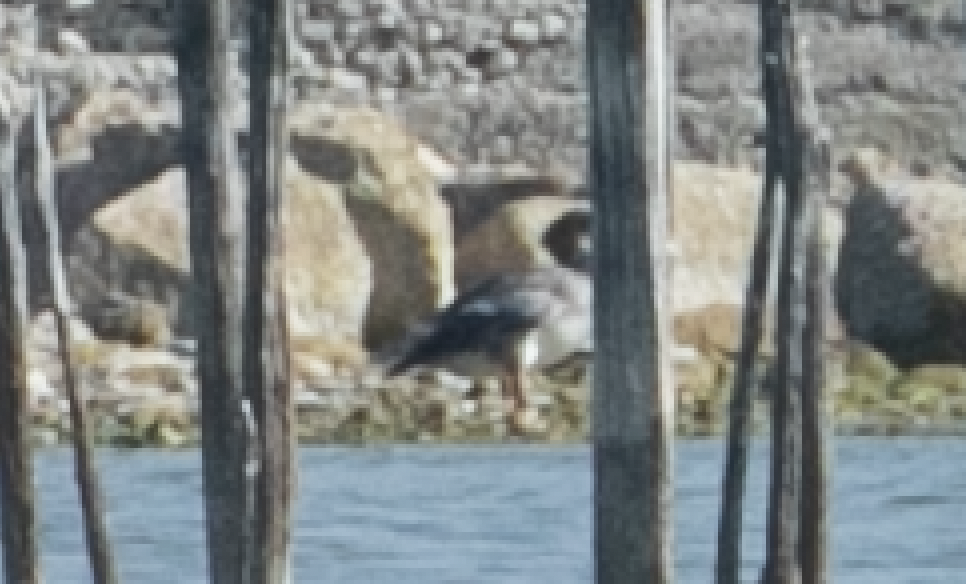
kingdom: Animalia
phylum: Chordata
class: Aves
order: Anseriformes
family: Anatidae
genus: Mergus
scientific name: Mergus merganser
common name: Common merganser
